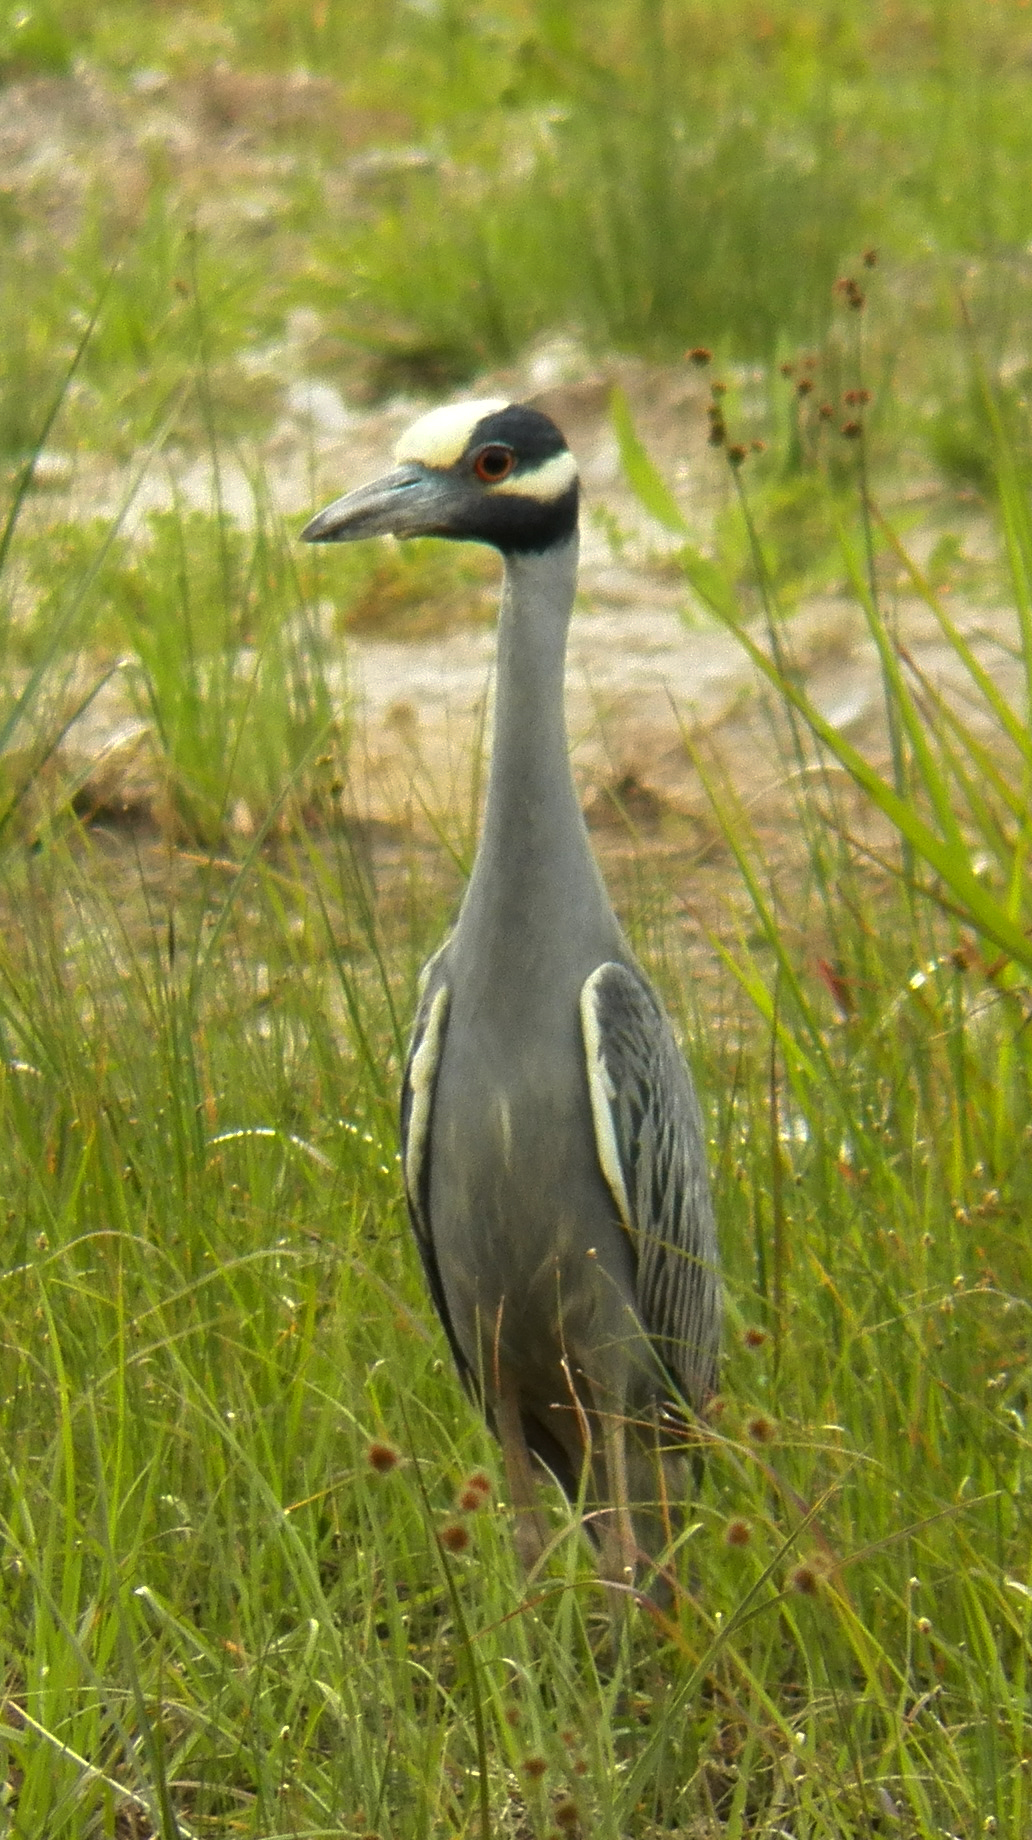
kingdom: Animalia
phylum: Chordata
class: Aves
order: Pelecaniformes
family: Ardeidae
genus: Nyctanassa
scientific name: Nyctanassa violacea
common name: Yellow-crowned night heron
